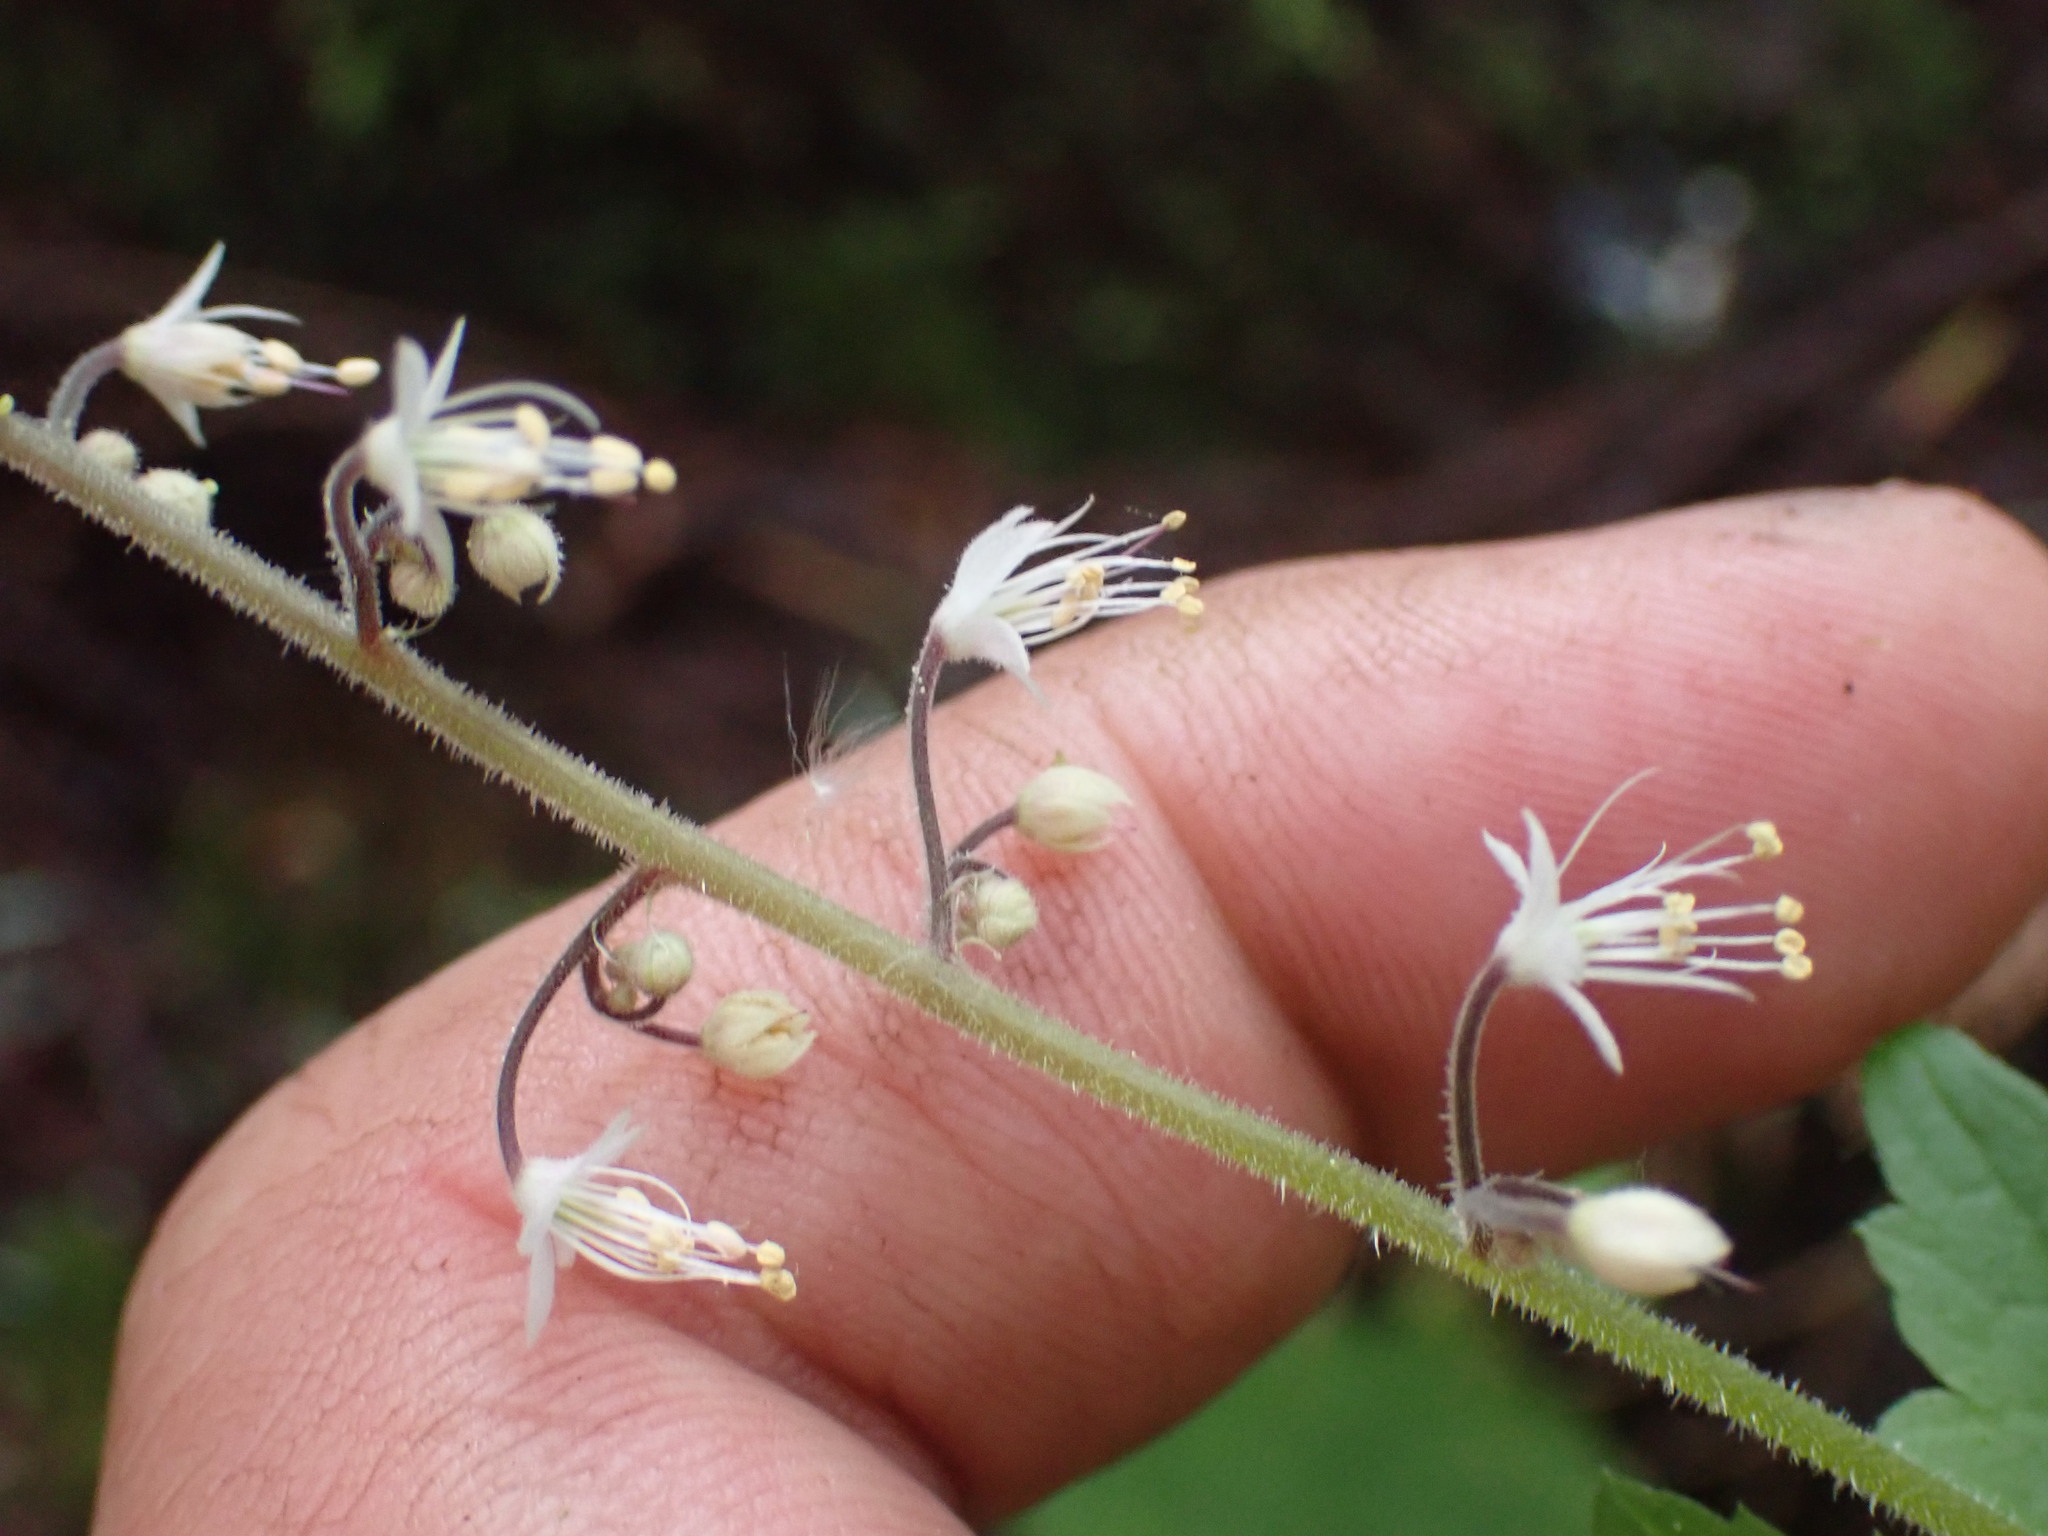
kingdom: Plantae
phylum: Tracheophyta
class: Magnoliopsida
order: Saxifragales
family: Saxifragaceae
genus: Tiarella
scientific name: Tiarella trifoliata
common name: Sugar-scoop
